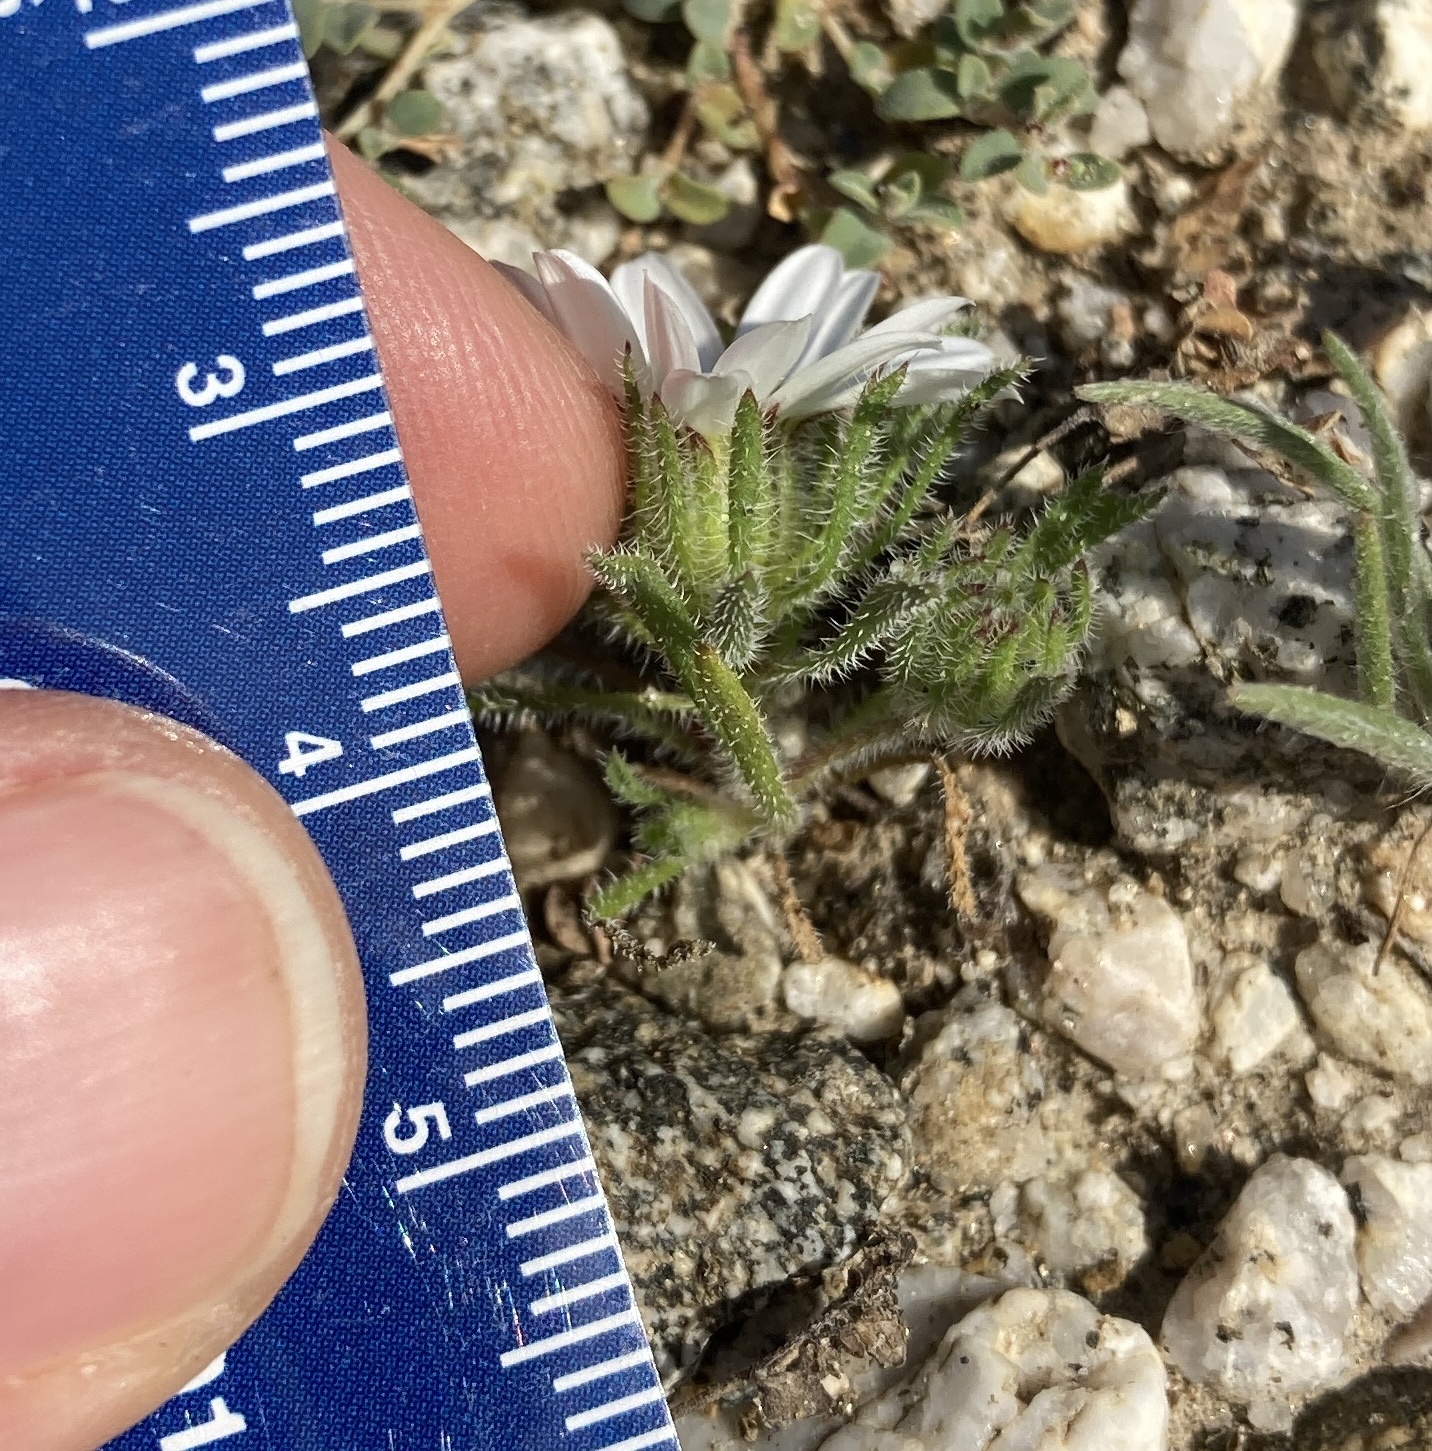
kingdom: Plantae
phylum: Tracheophyta
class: Magnoliopsida
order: Asterales
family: Asteraceae
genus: Monoptilon
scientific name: Monoptilon bellioides
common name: Bristly desertstar
